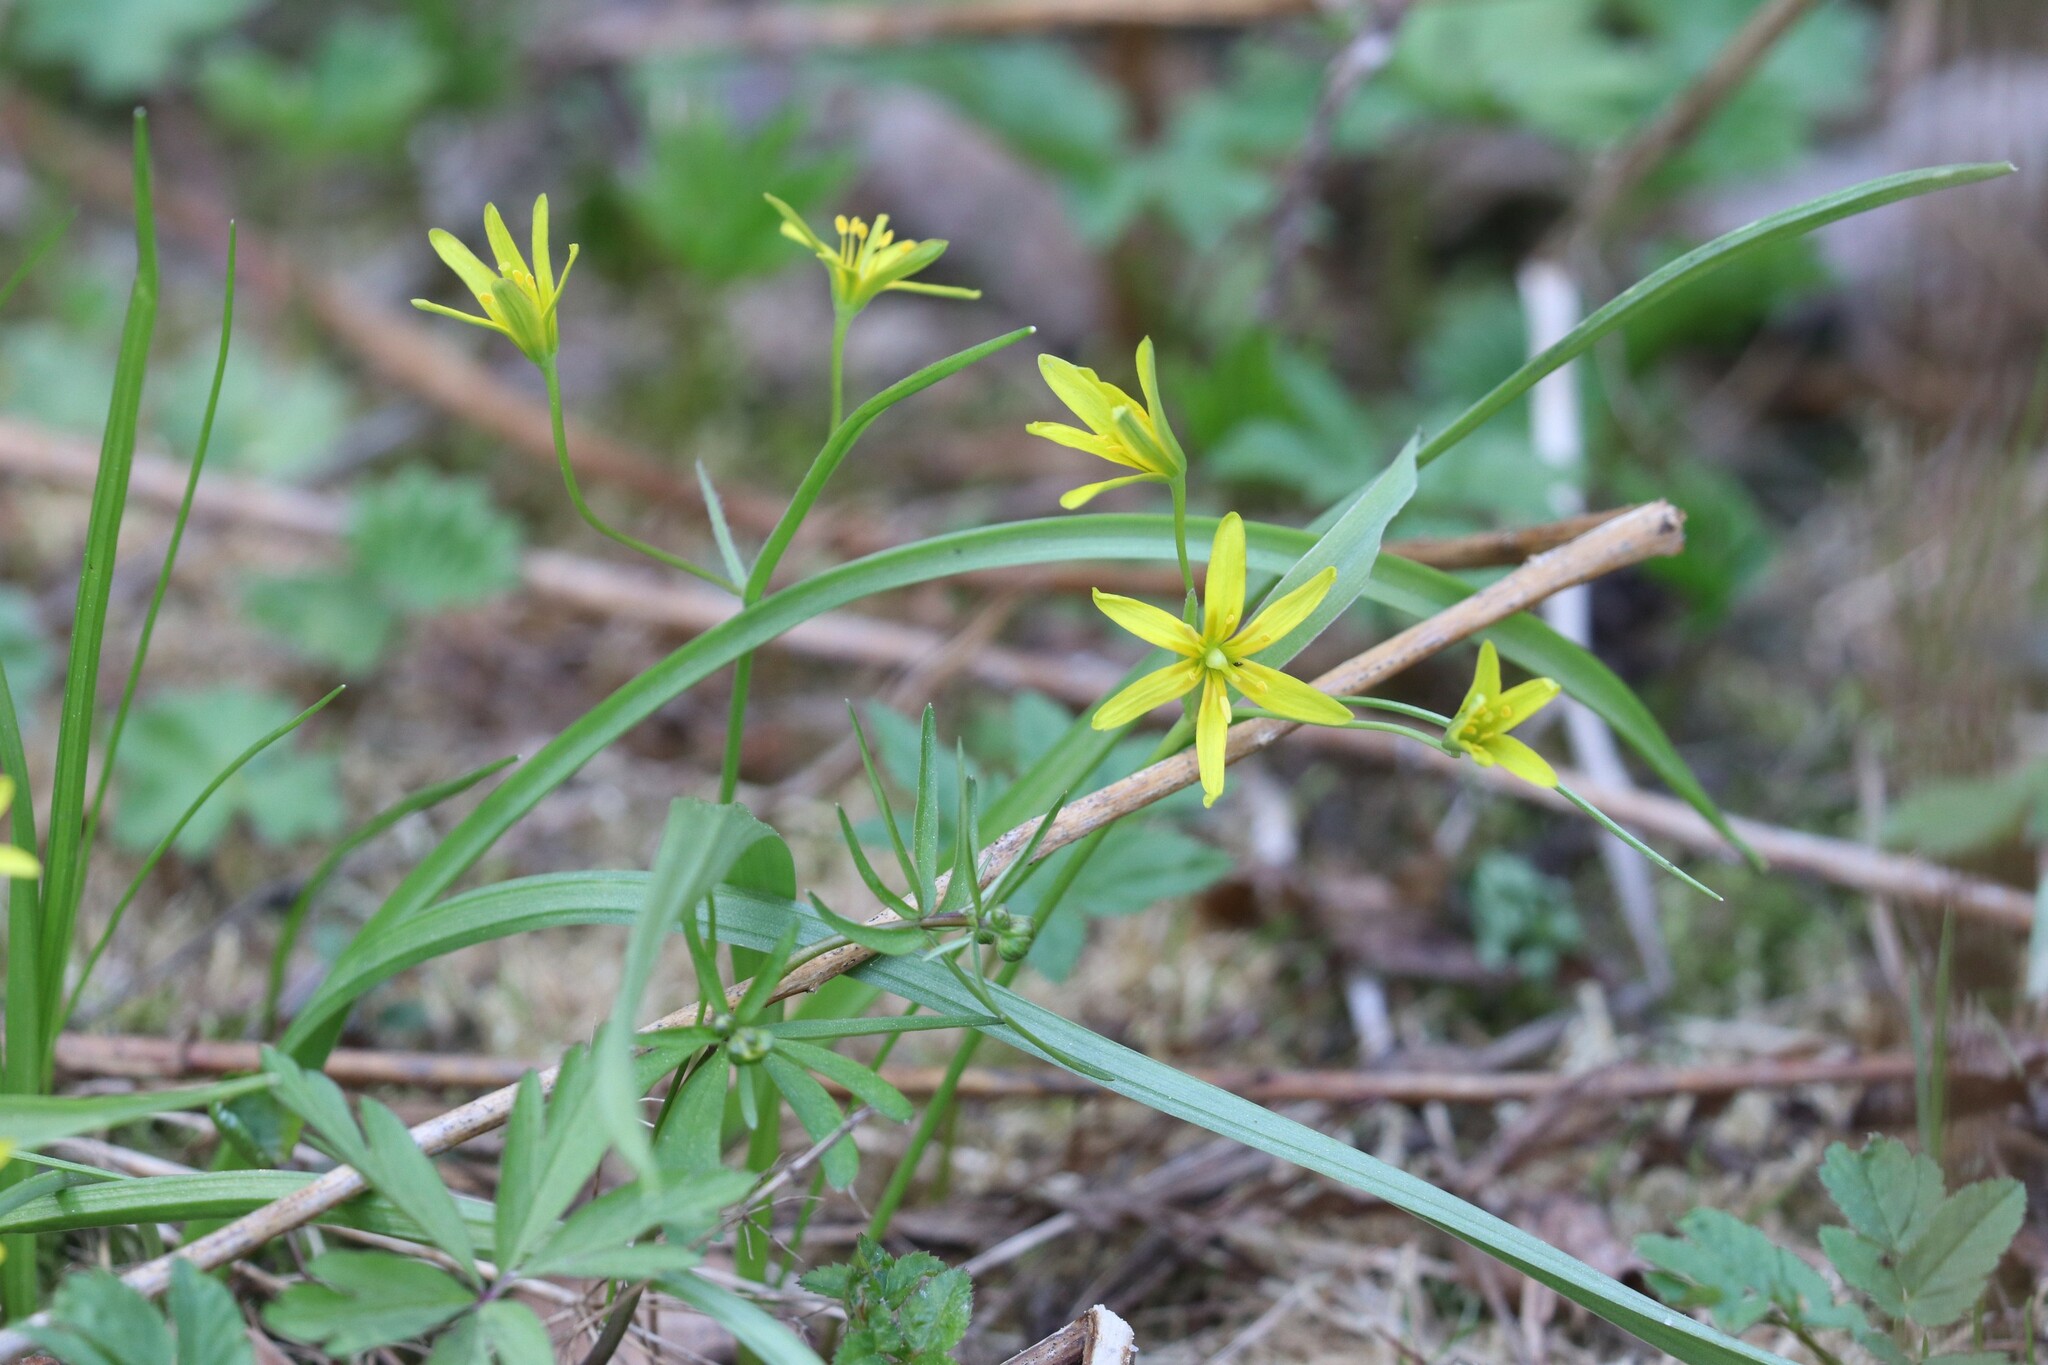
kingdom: Plantae
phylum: Tracheophyta
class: Liliopsida
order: Liliales
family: Liliaceae
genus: Gagea
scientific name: Gagea lutea
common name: Yellow star-of-bethlehem
